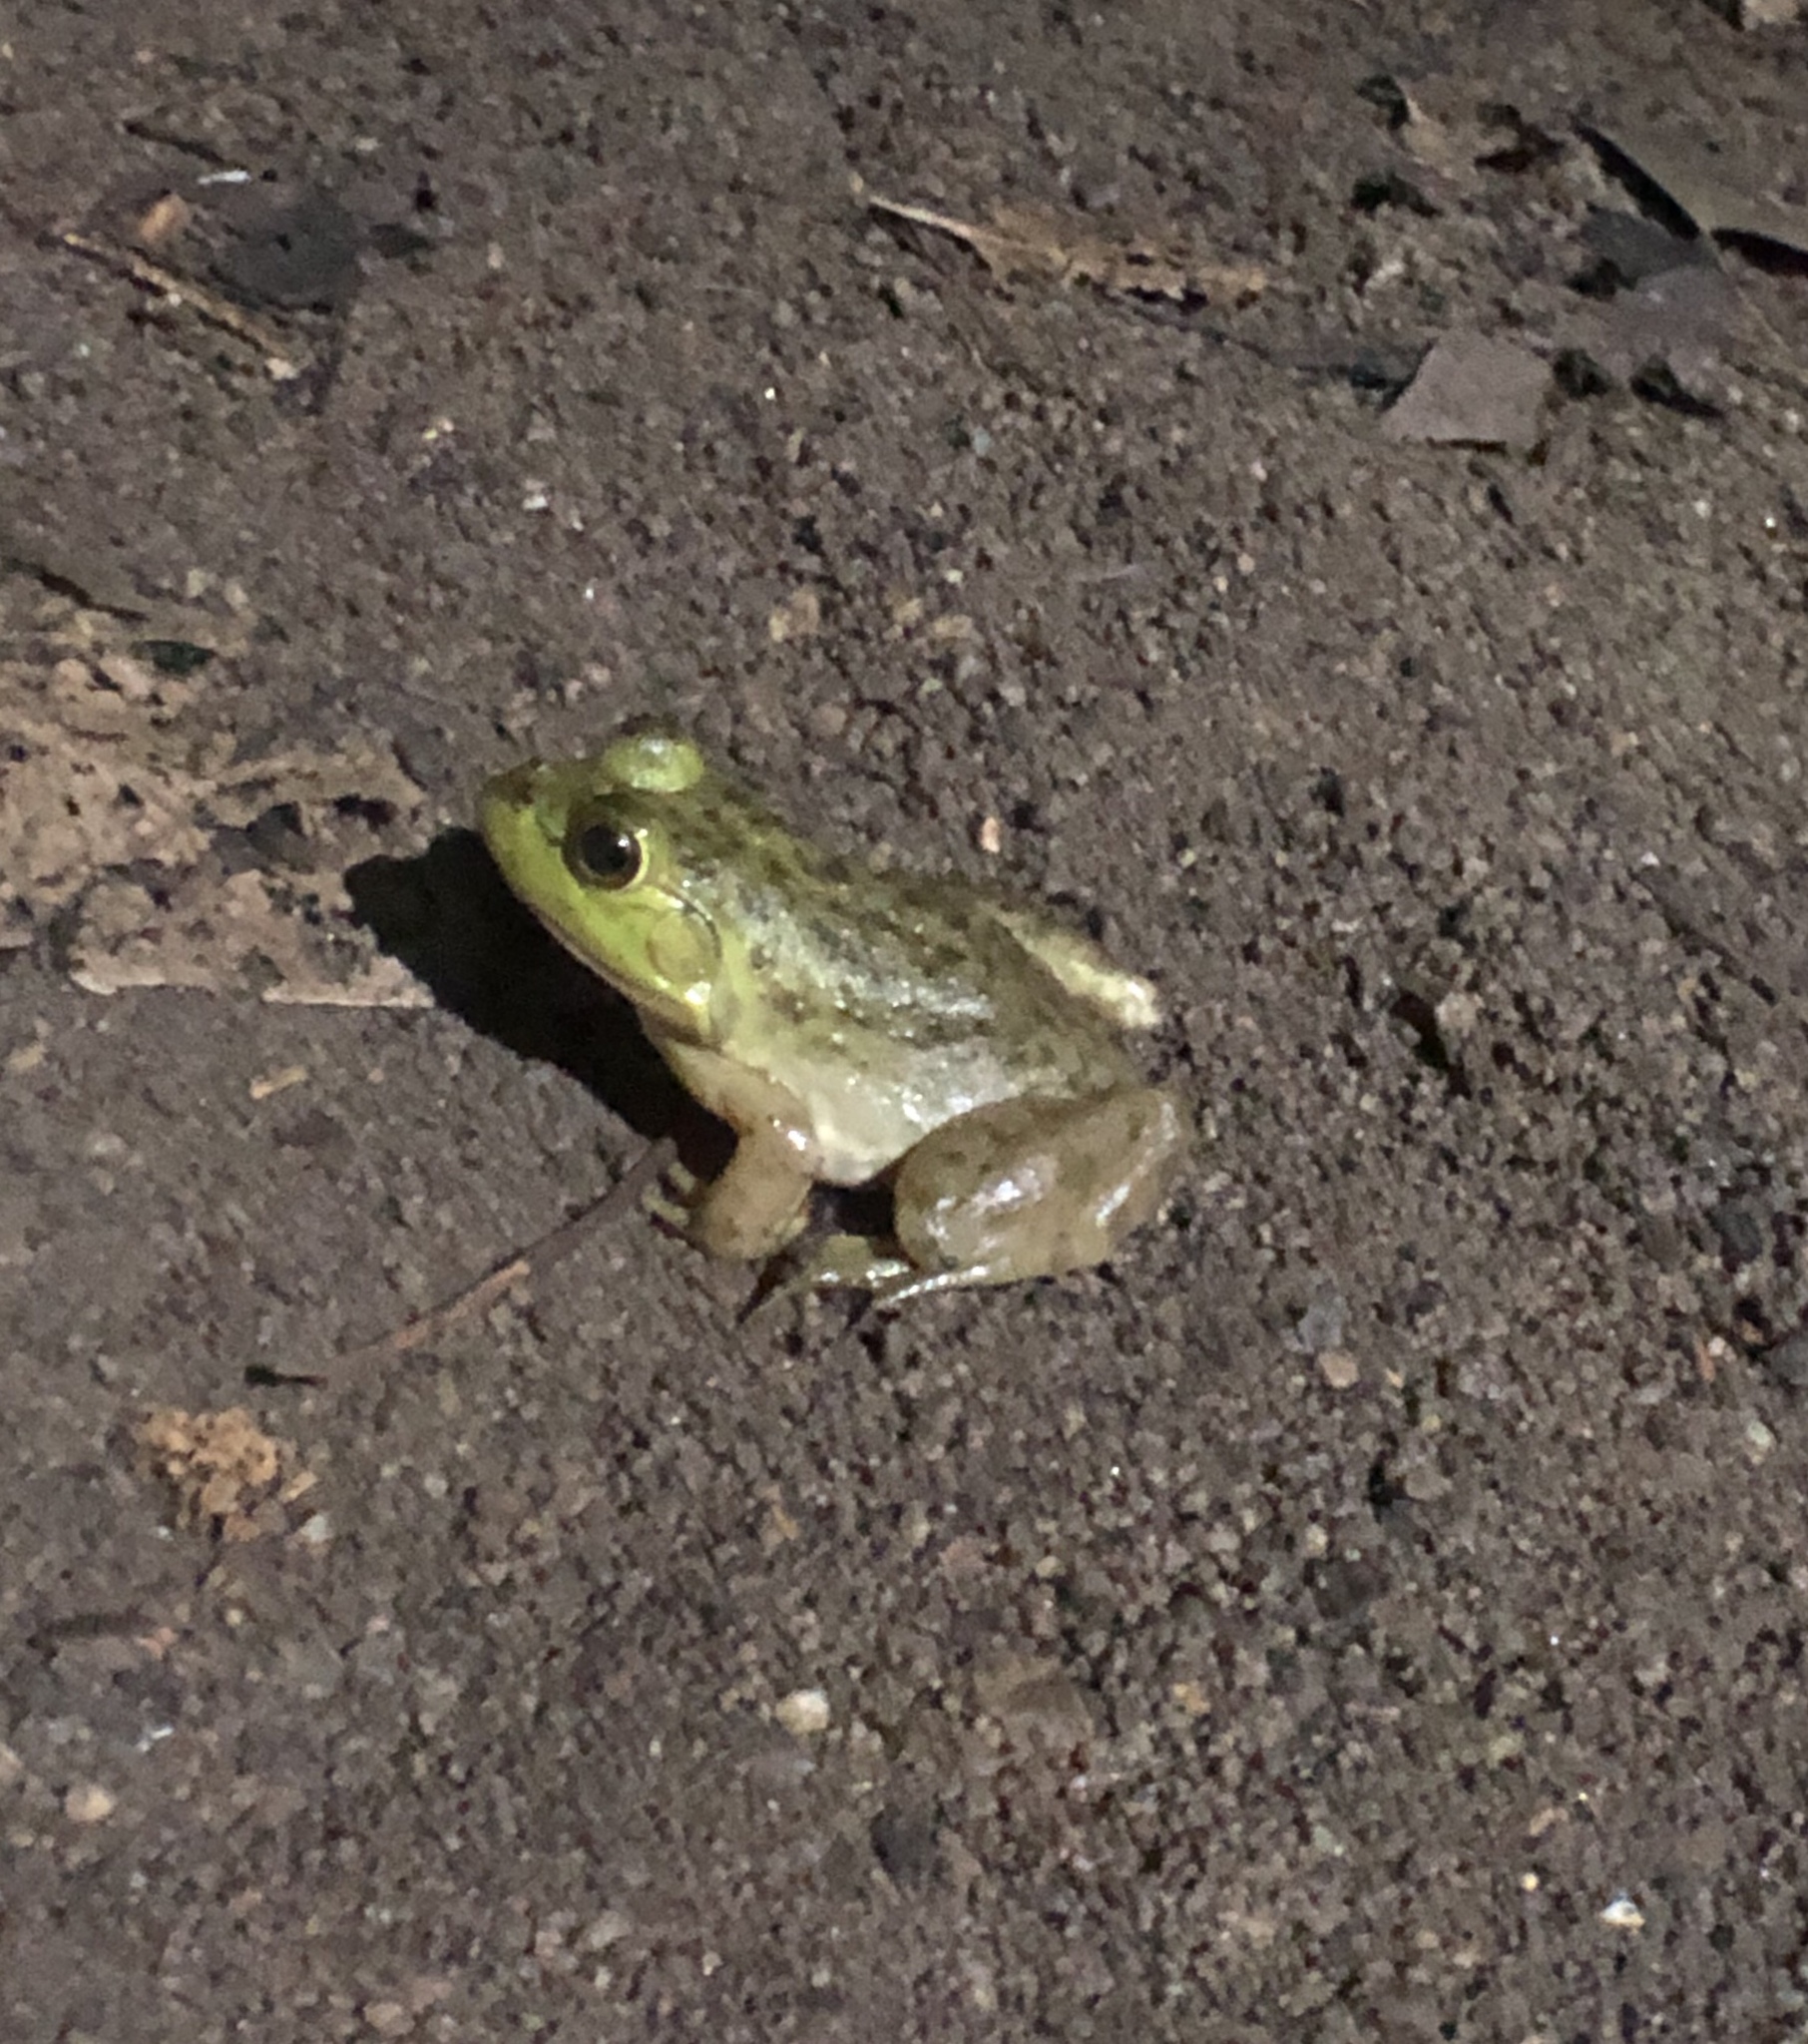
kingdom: Animalia
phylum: Chordata
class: Amphibia
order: Anura
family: Ranidae
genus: Lithobates
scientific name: Lithobates catesbeianus
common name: American bullfrog
